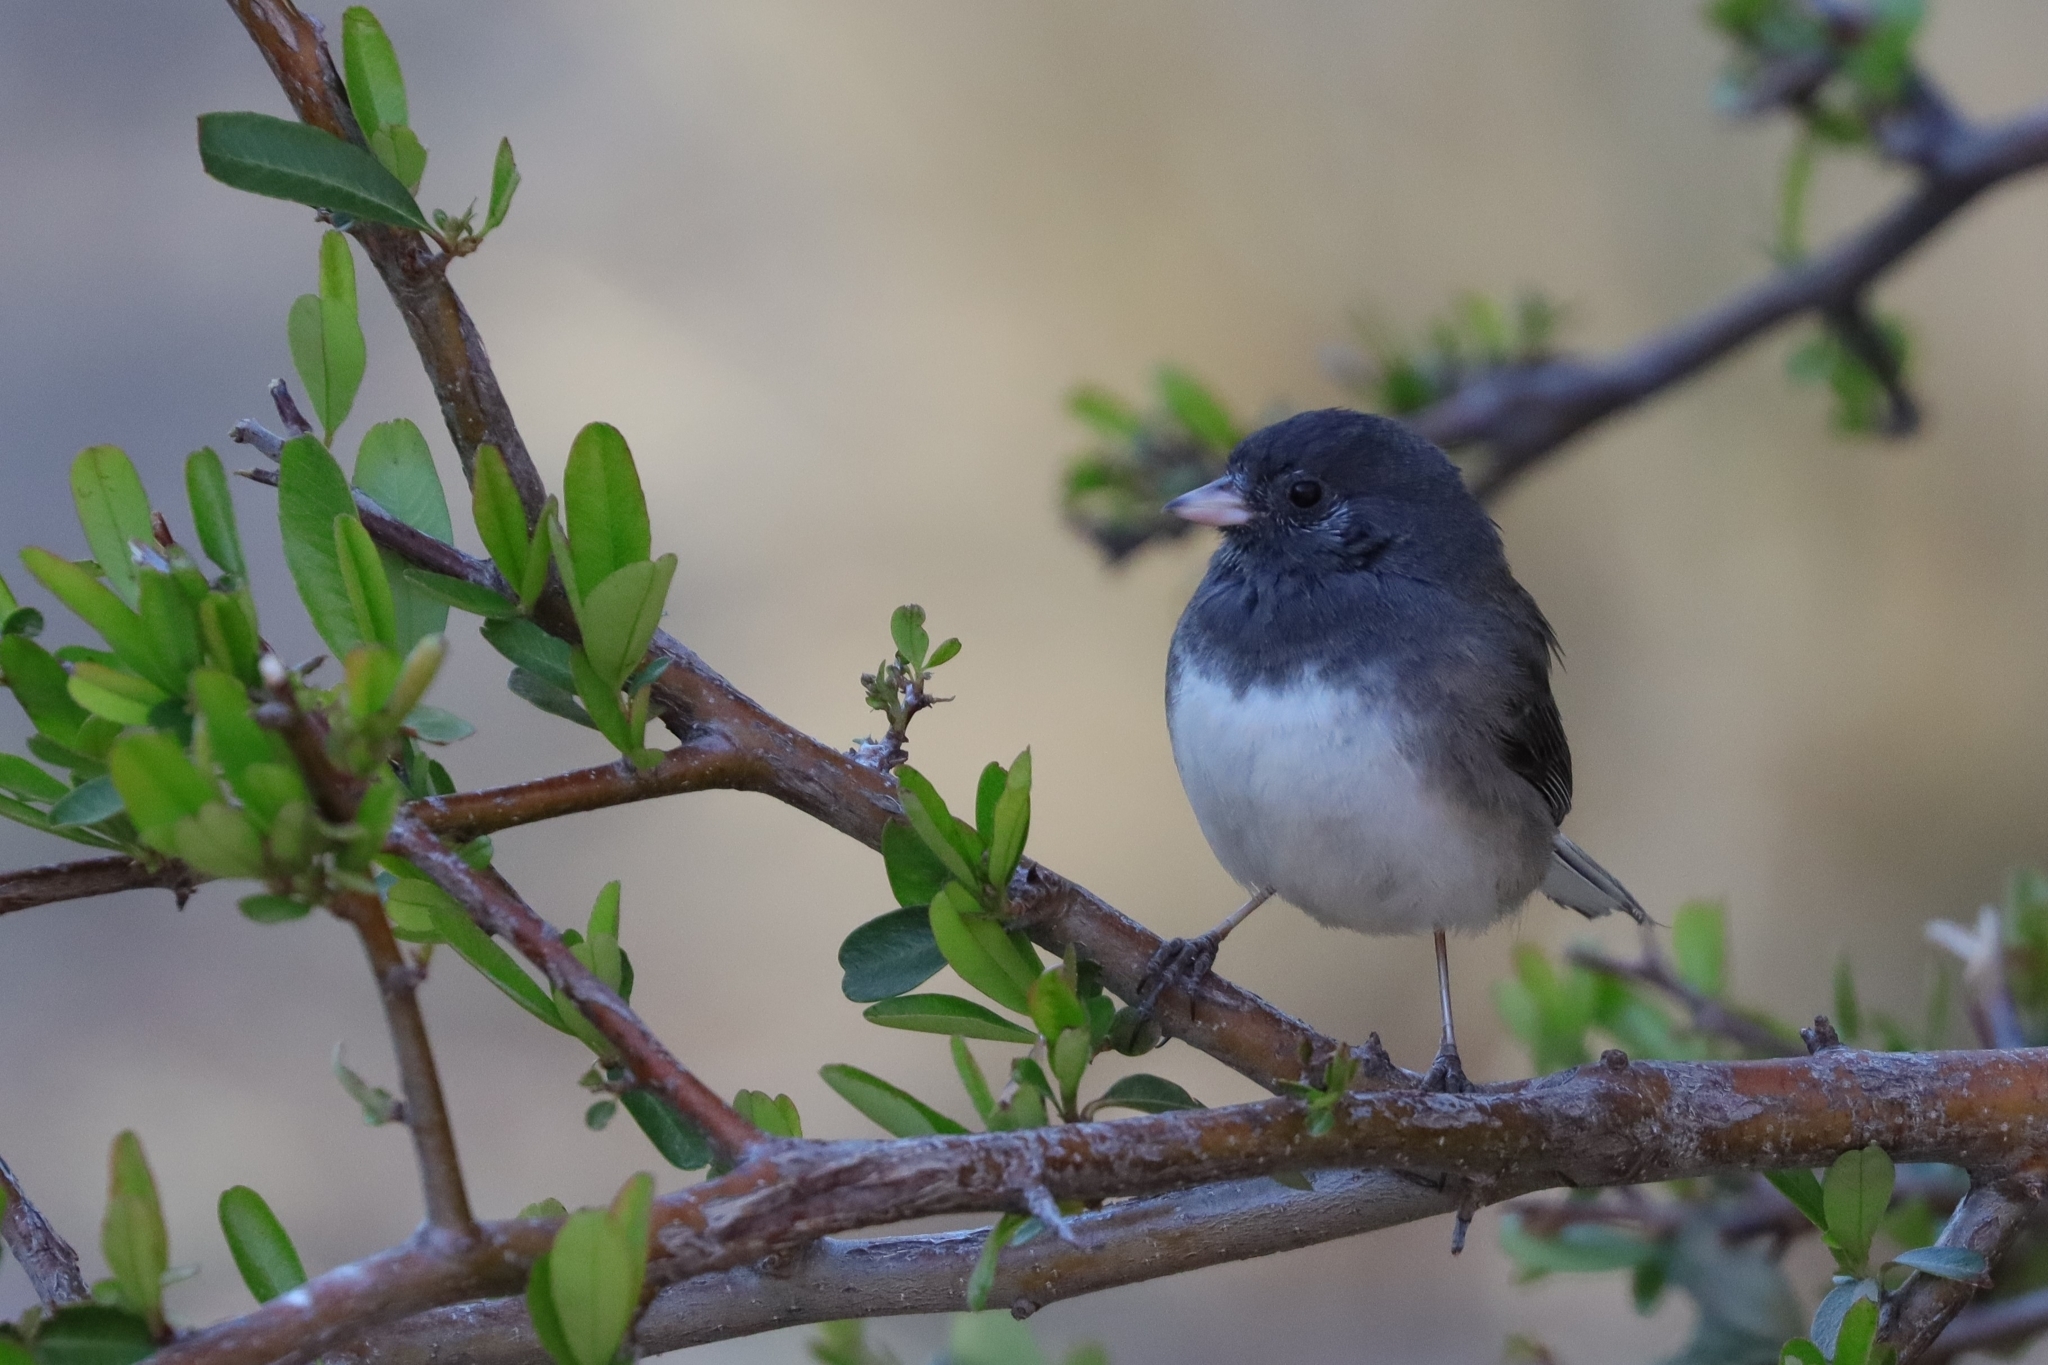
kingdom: Animalia
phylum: Chordata
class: Aves
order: Passeriformes
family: Passerellidae
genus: Junco
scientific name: Junco hyemalis
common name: Dark-eyed junco
